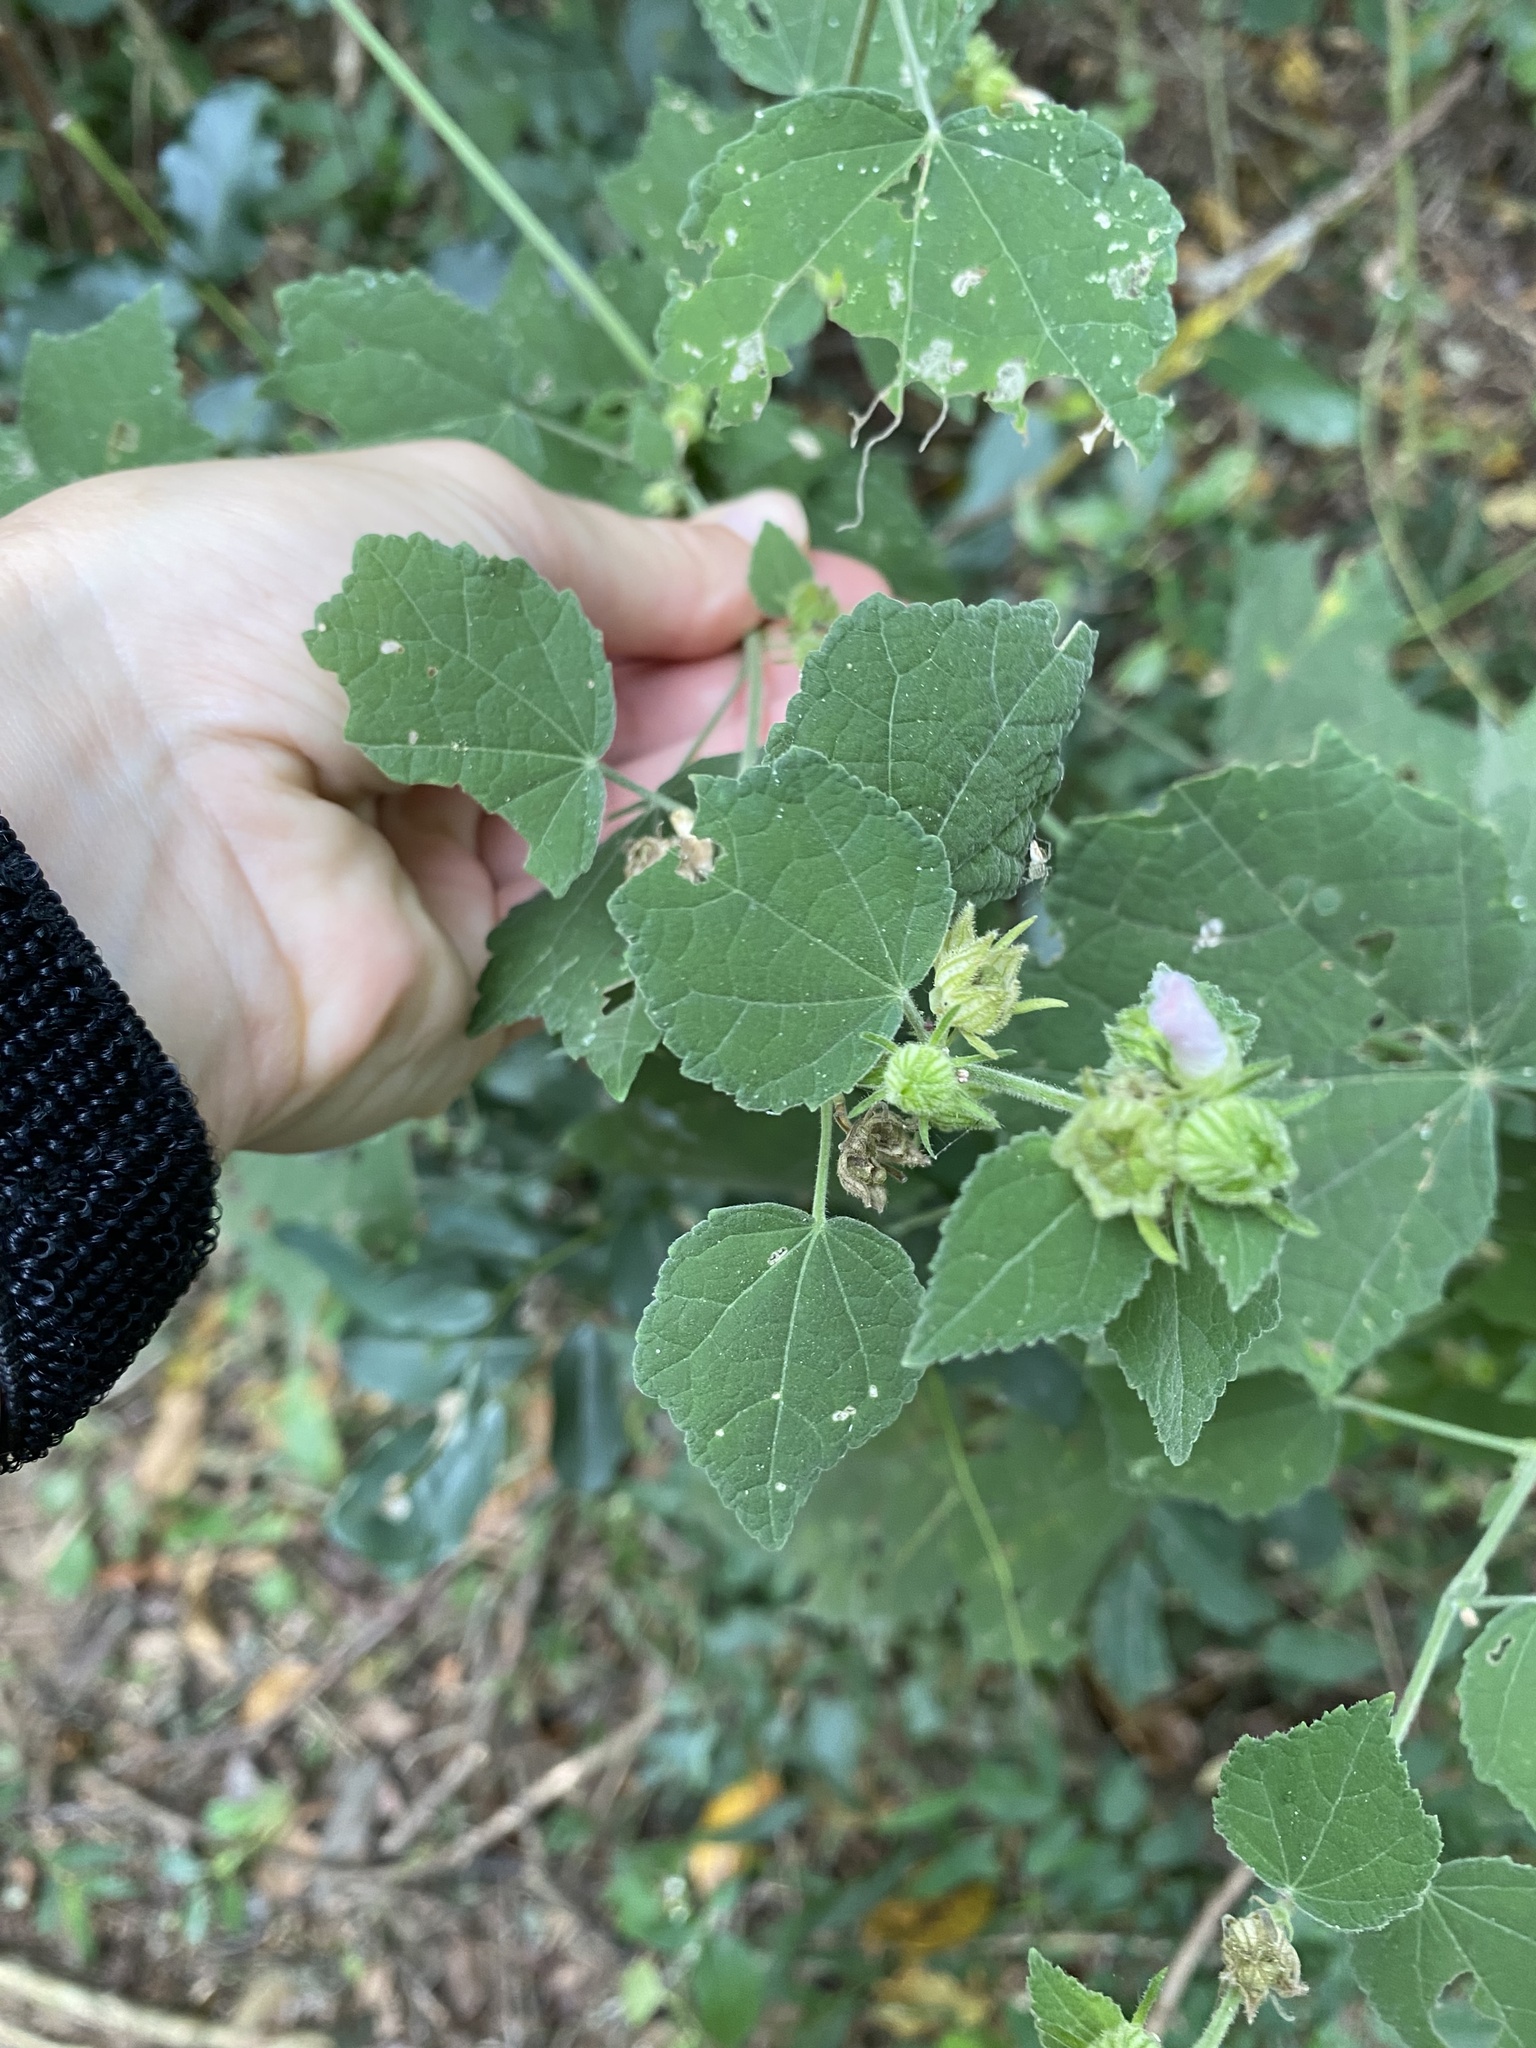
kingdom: Plantae
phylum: Tracheophyta
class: Magnoliopsida
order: Malvales
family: Malvaceae
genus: Pavonia
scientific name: Pavonia columella
